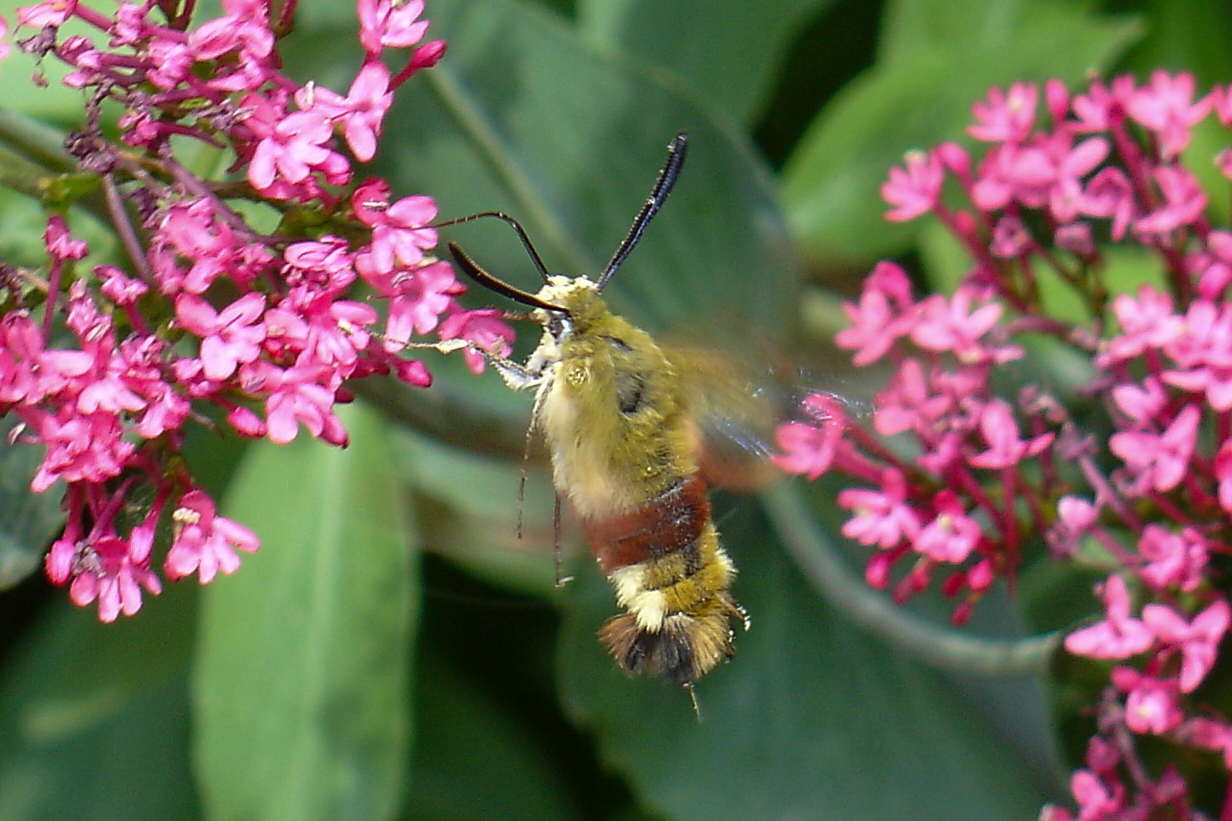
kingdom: Animalia
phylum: Arthropoda
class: Insecta
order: Lepidoptera
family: Sphingidae
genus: Hemaris
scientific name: Hemaris fuciformis
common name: Broad-bordered bee hawk-moth
